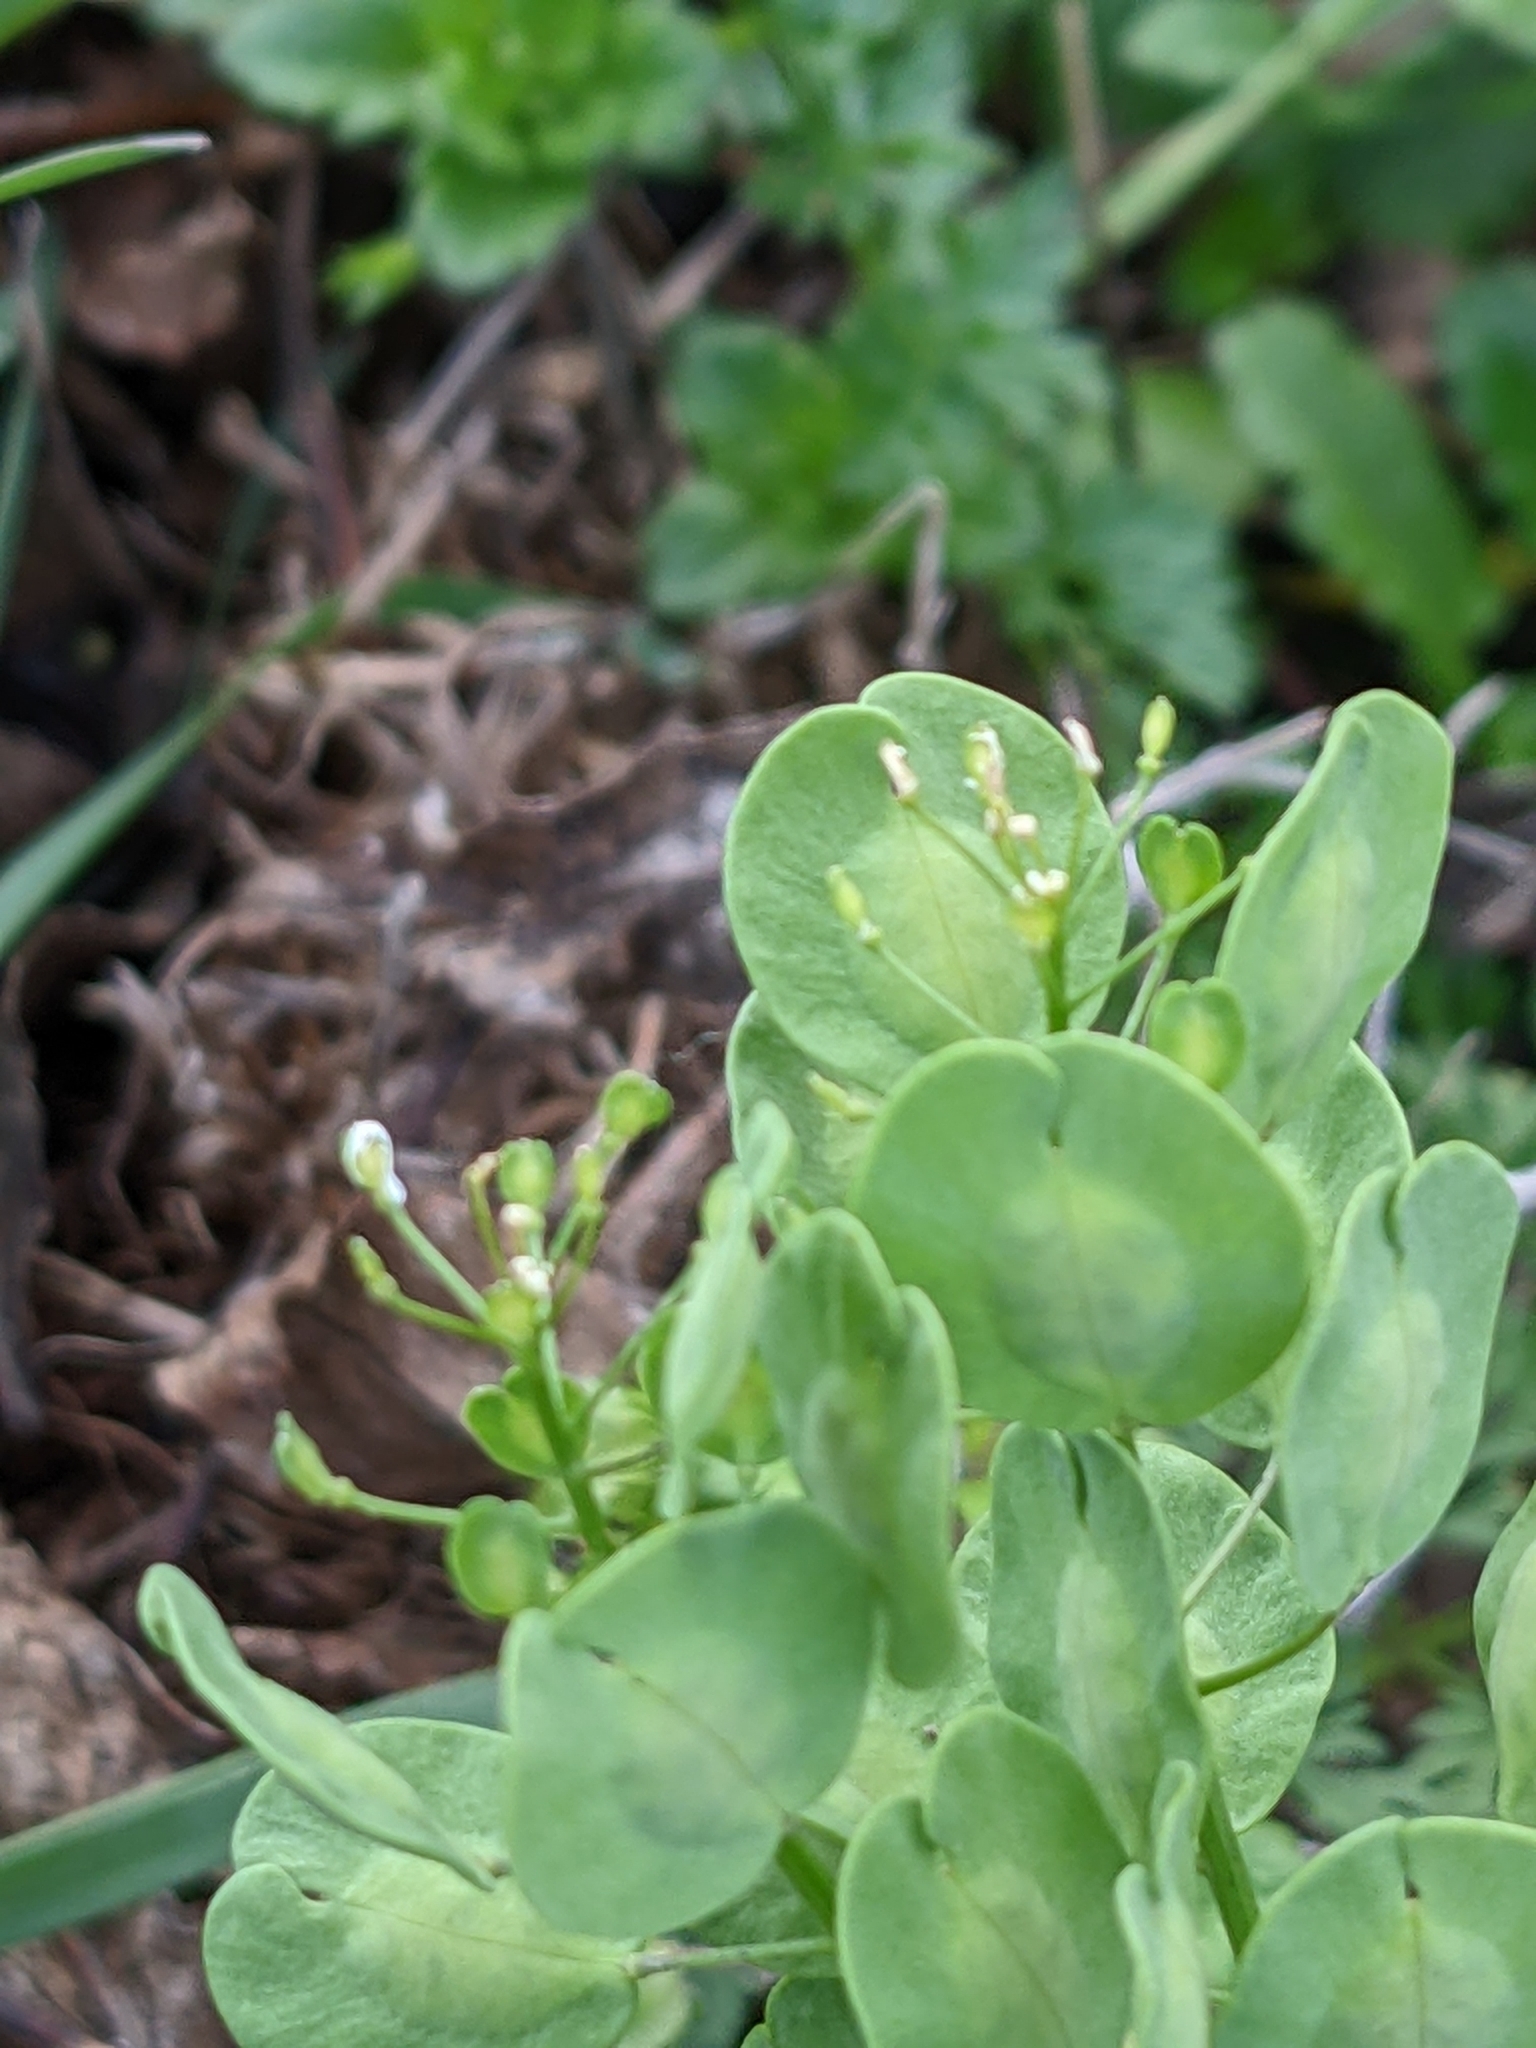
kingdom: Plantae
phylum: Tracheophyta
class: Magnoliopsida
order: Brassicales
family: Brassicaceae
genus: Thlaspi
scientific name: Thlaspi arvense
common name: Field pennycress
